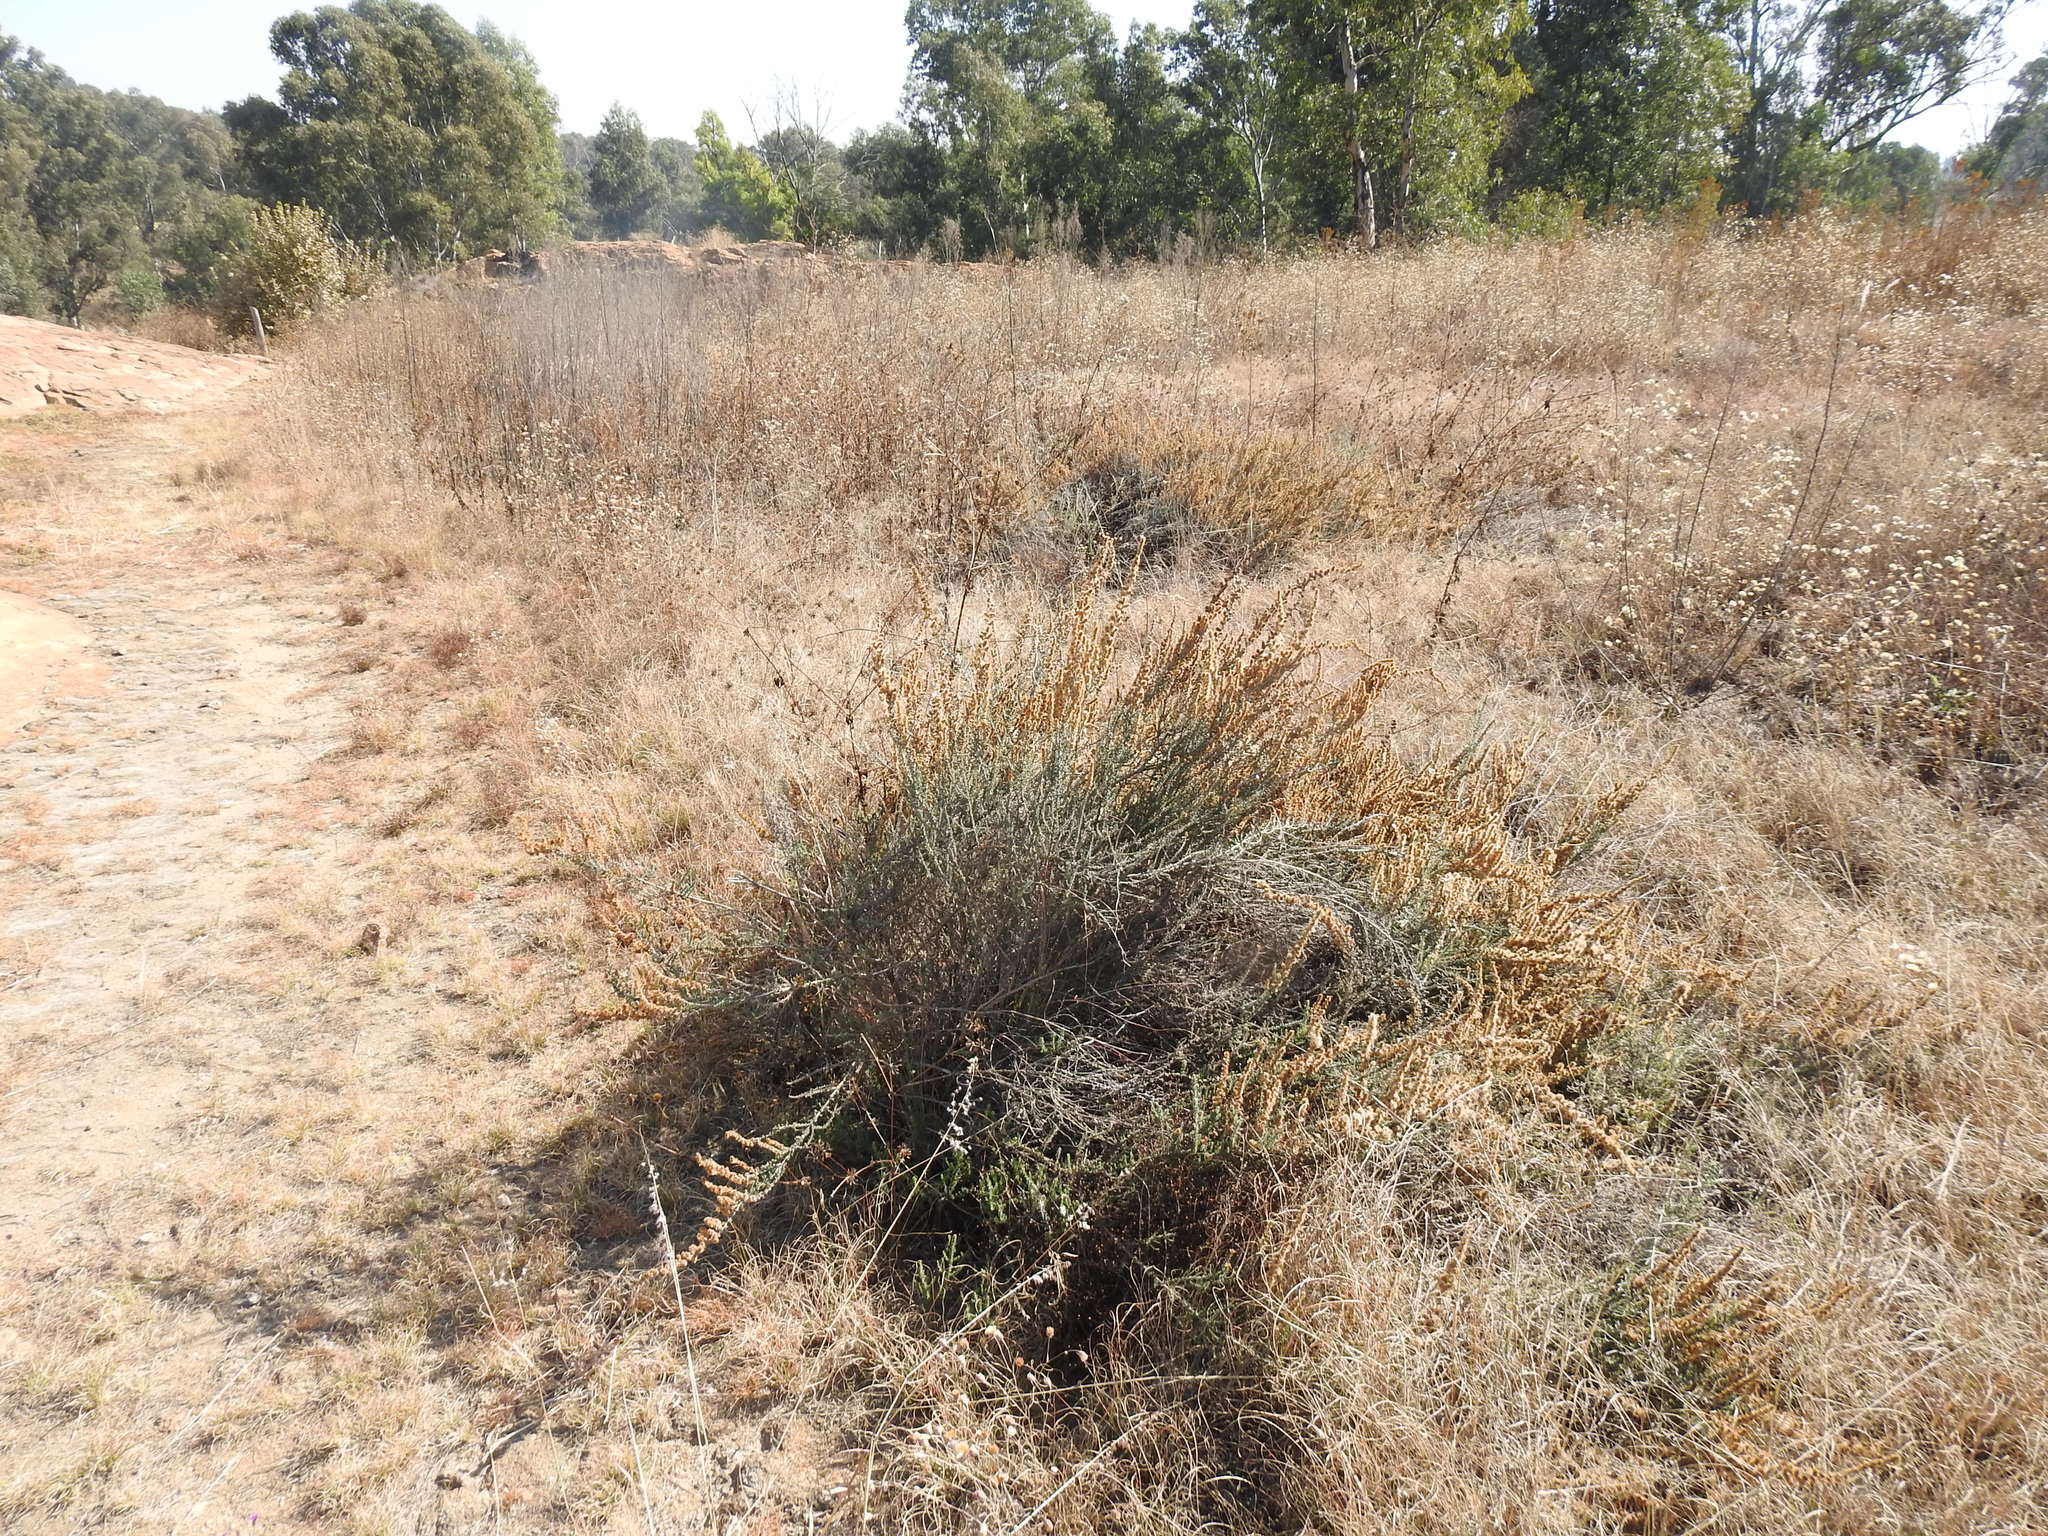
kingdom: Plantae
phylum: Tracheophyta
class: Magnoliopsida
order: Asterales
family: Asteraceae
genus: Seriphium
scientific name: Seriphium plumosum
